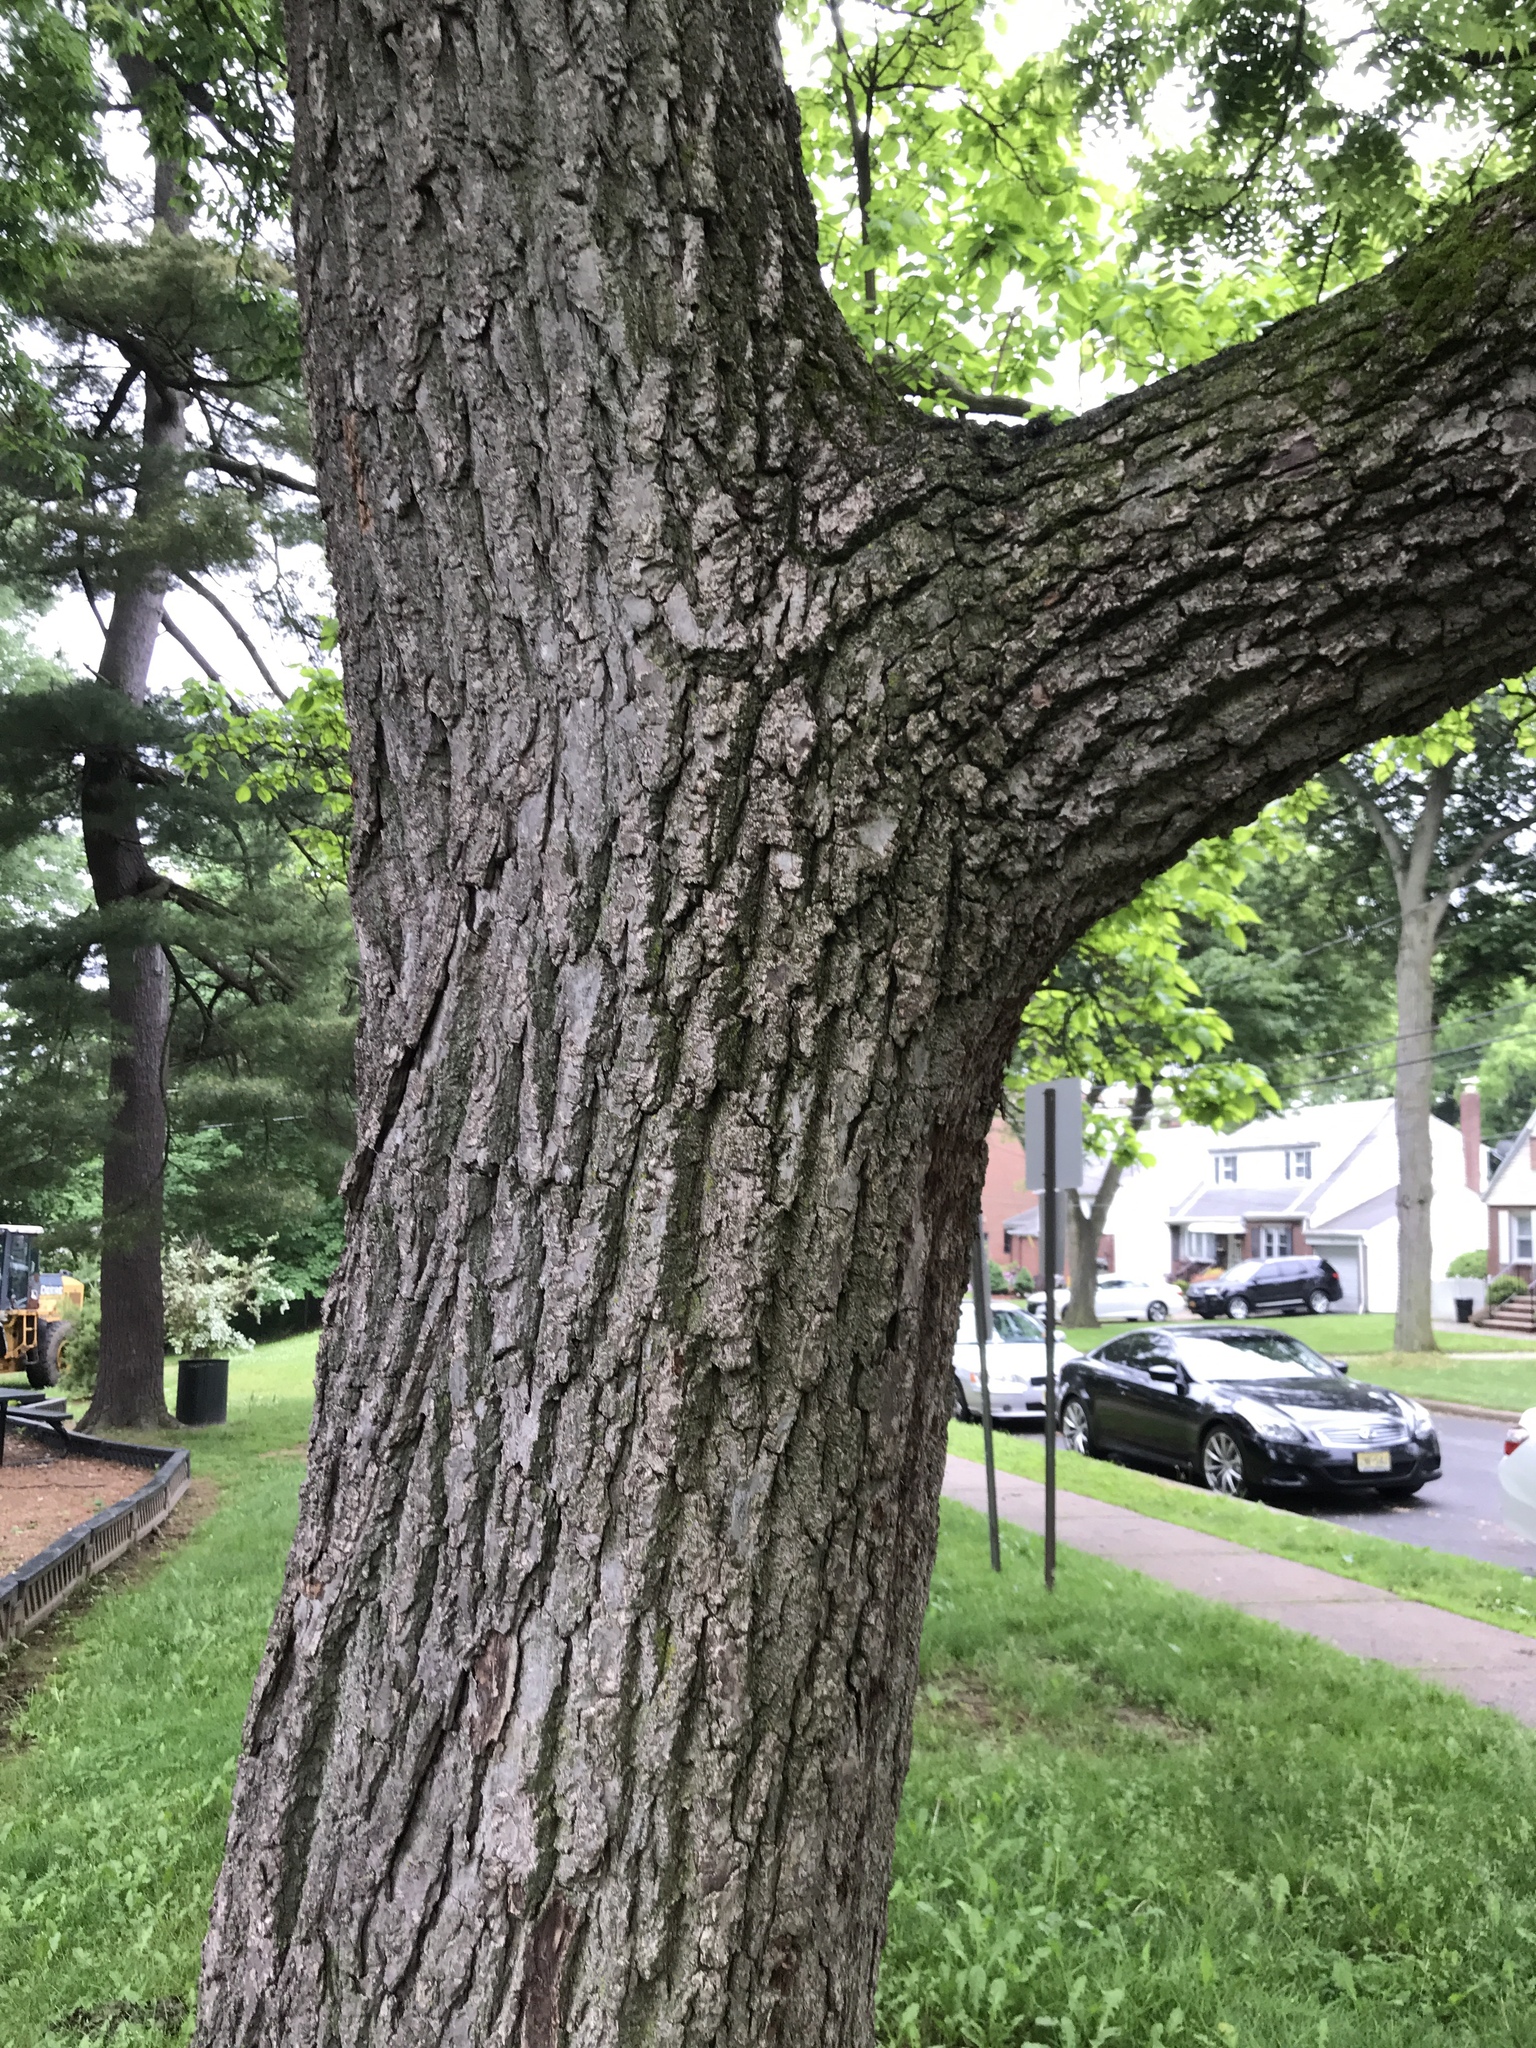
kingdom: Plantae
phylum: Tracheophyta
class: Magnoliopsida
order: Fagales
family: Juglandaceae
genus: Juglans
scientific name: Juglans nigra
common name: Black walnut
